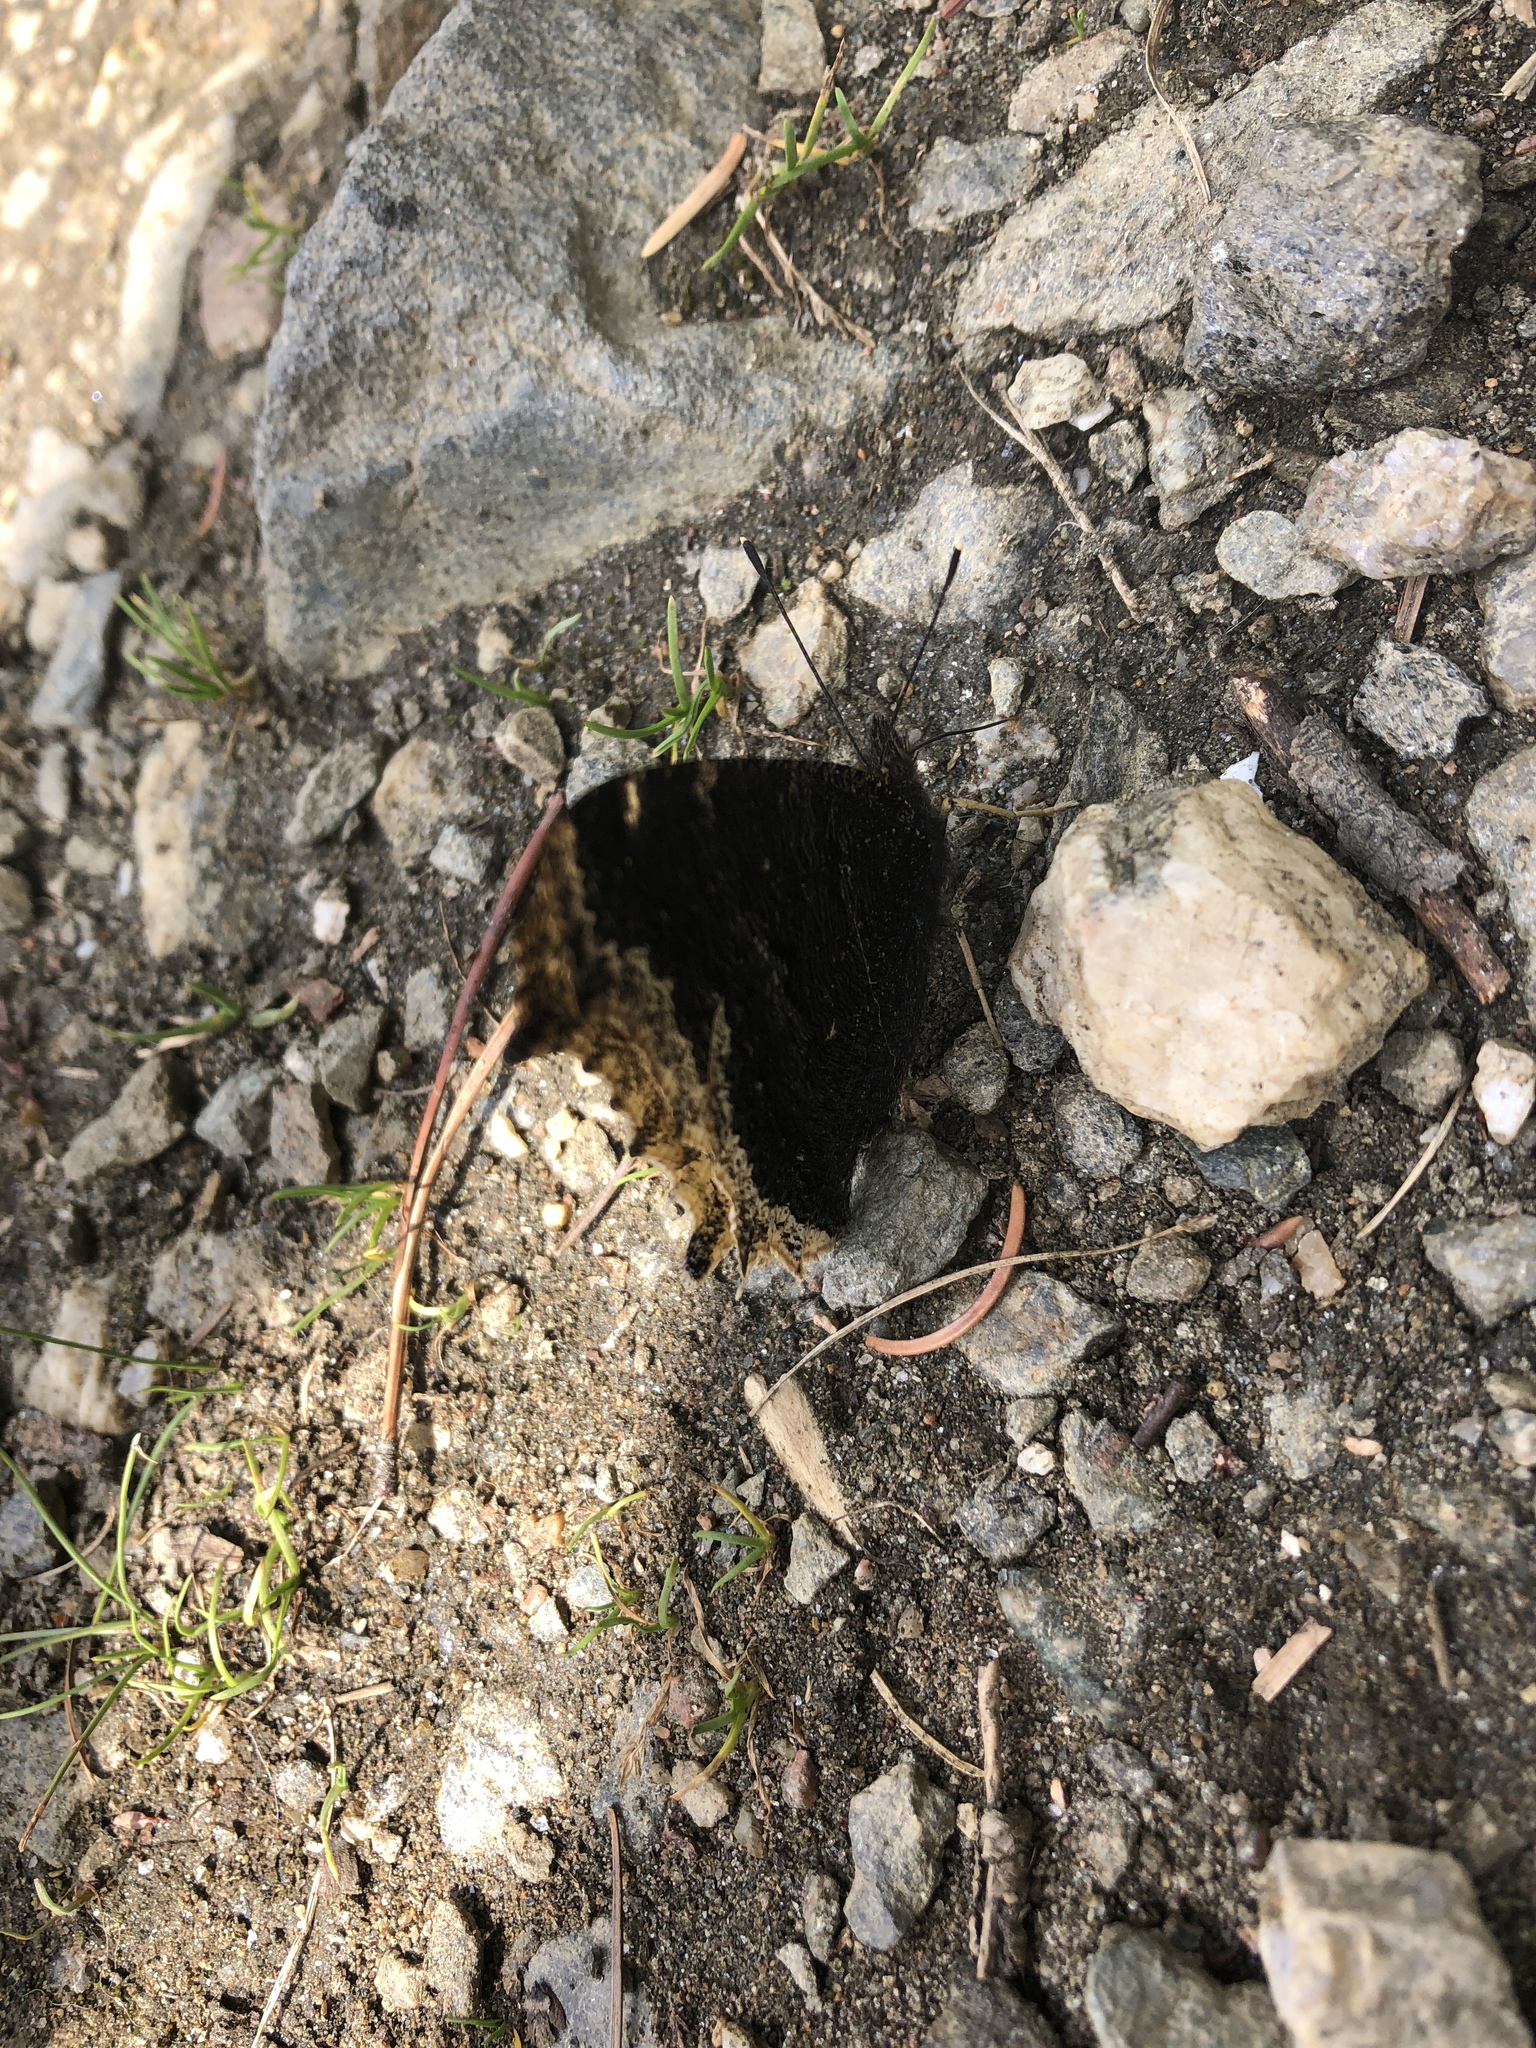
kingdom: Animalia
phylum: Arthropoda
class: Insecta
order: Lepidoptera
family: Nymphalidae
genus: Nymphalis
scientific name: Nymphalis antiopa
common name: Camberwell beauty
